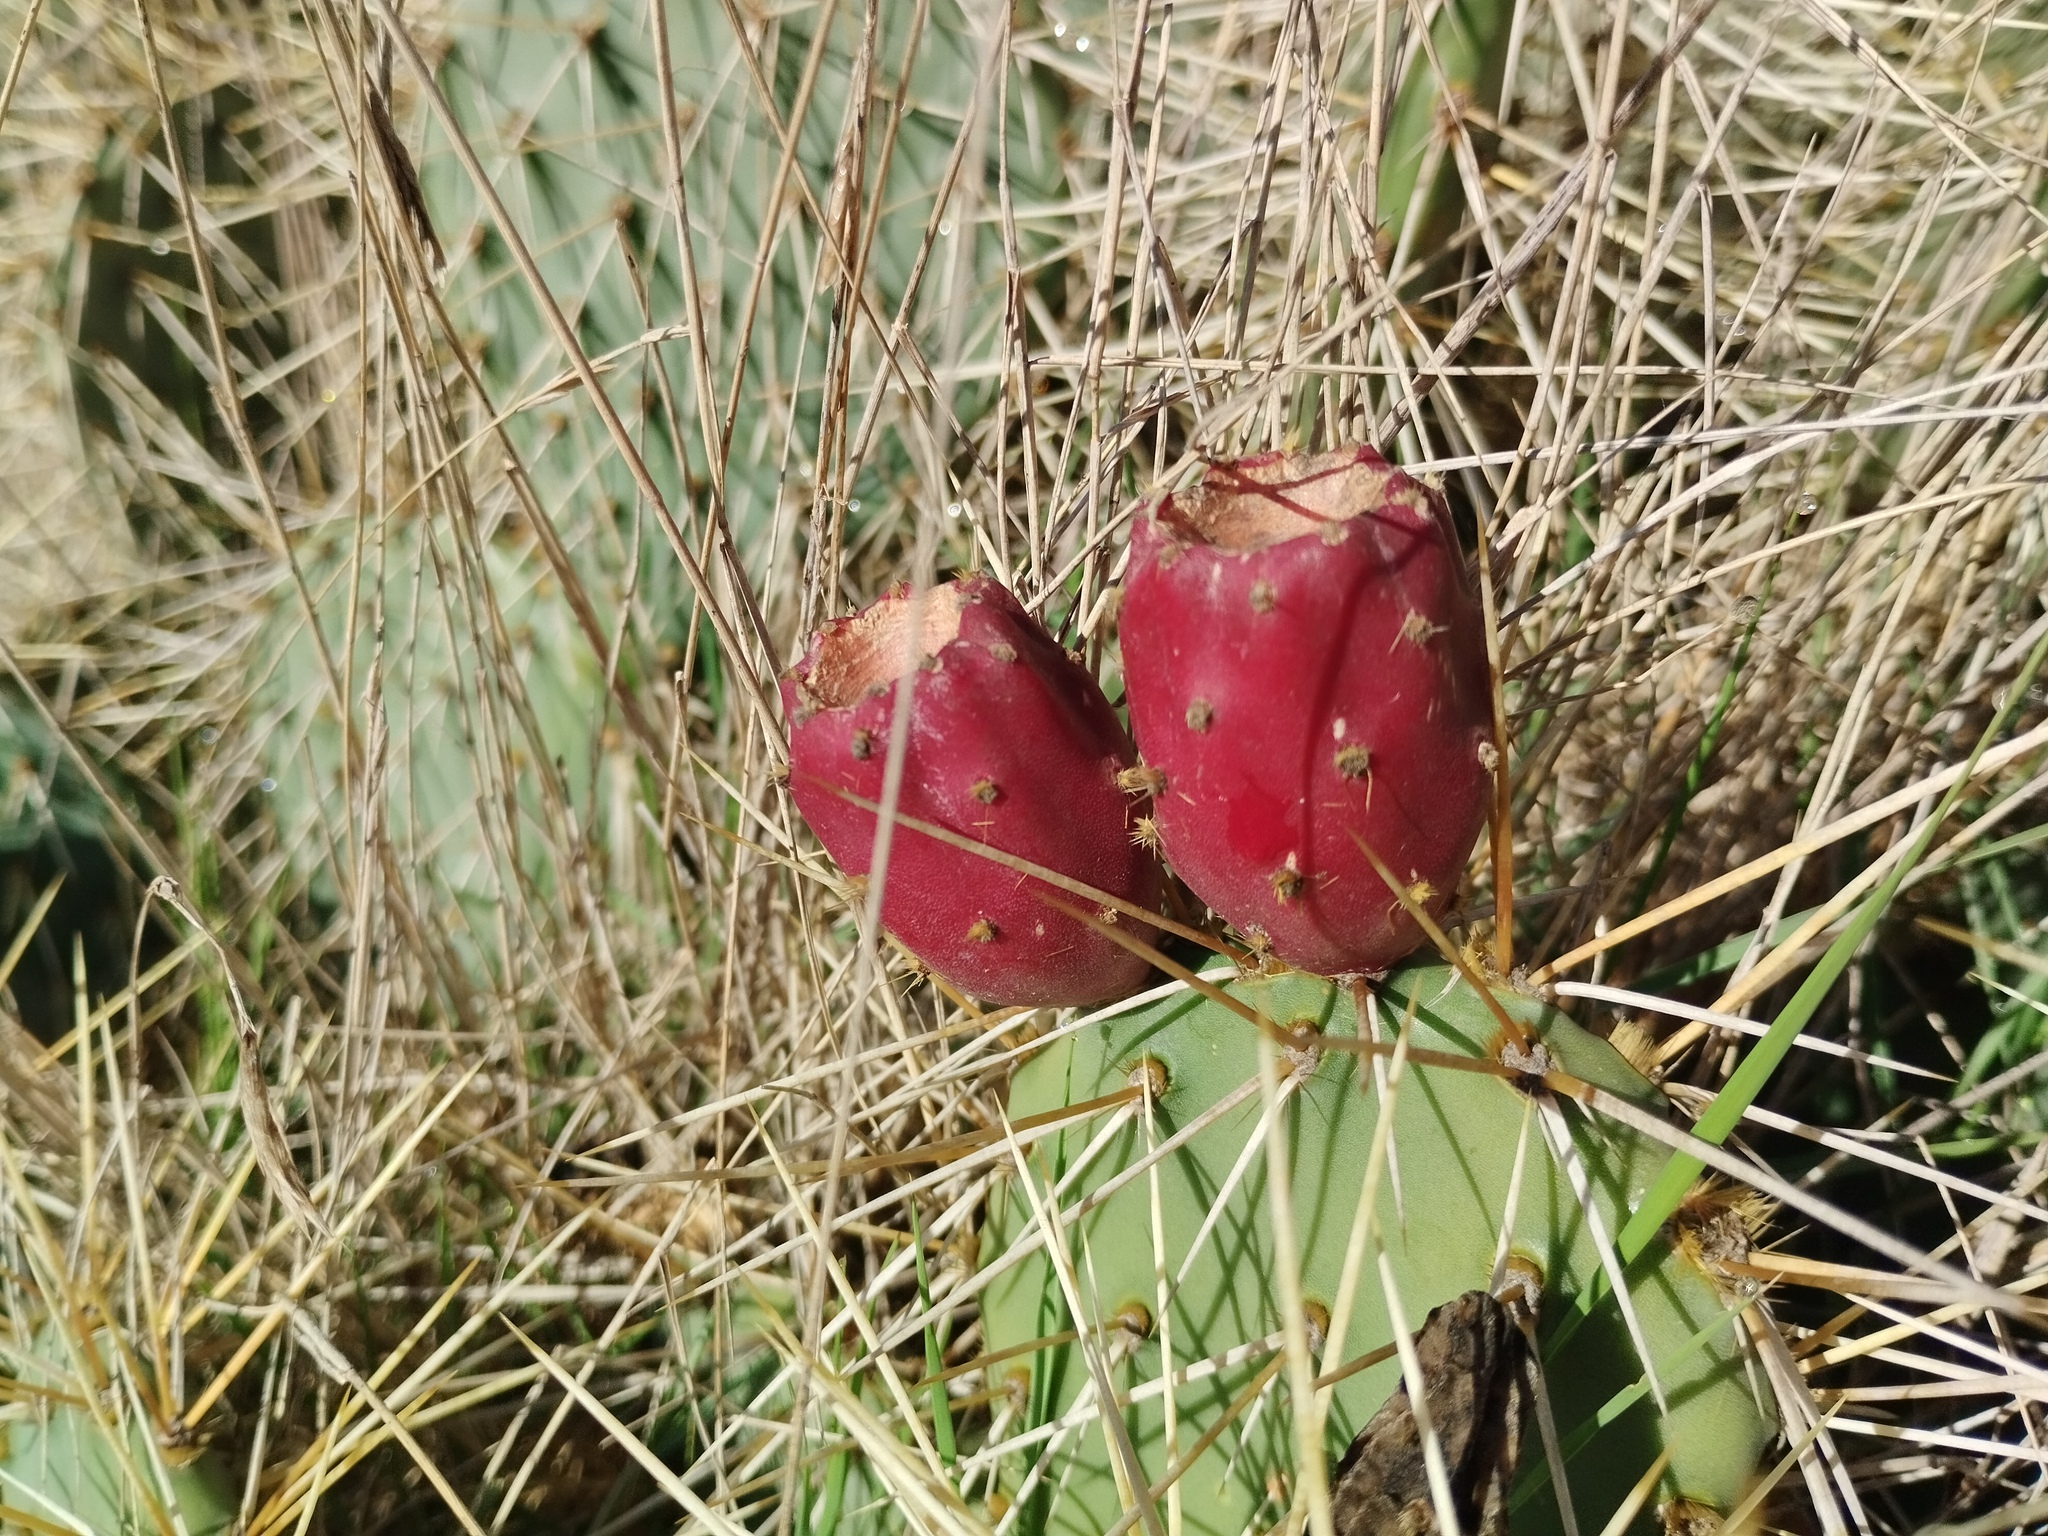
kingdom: Plantae
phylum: Tracheophyta
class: Magnoliopsida
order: Caryophyllales
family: Cactaceae
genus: Opuntia
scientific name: Opuntia phaeacantha
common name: New mexico prickly-pear
